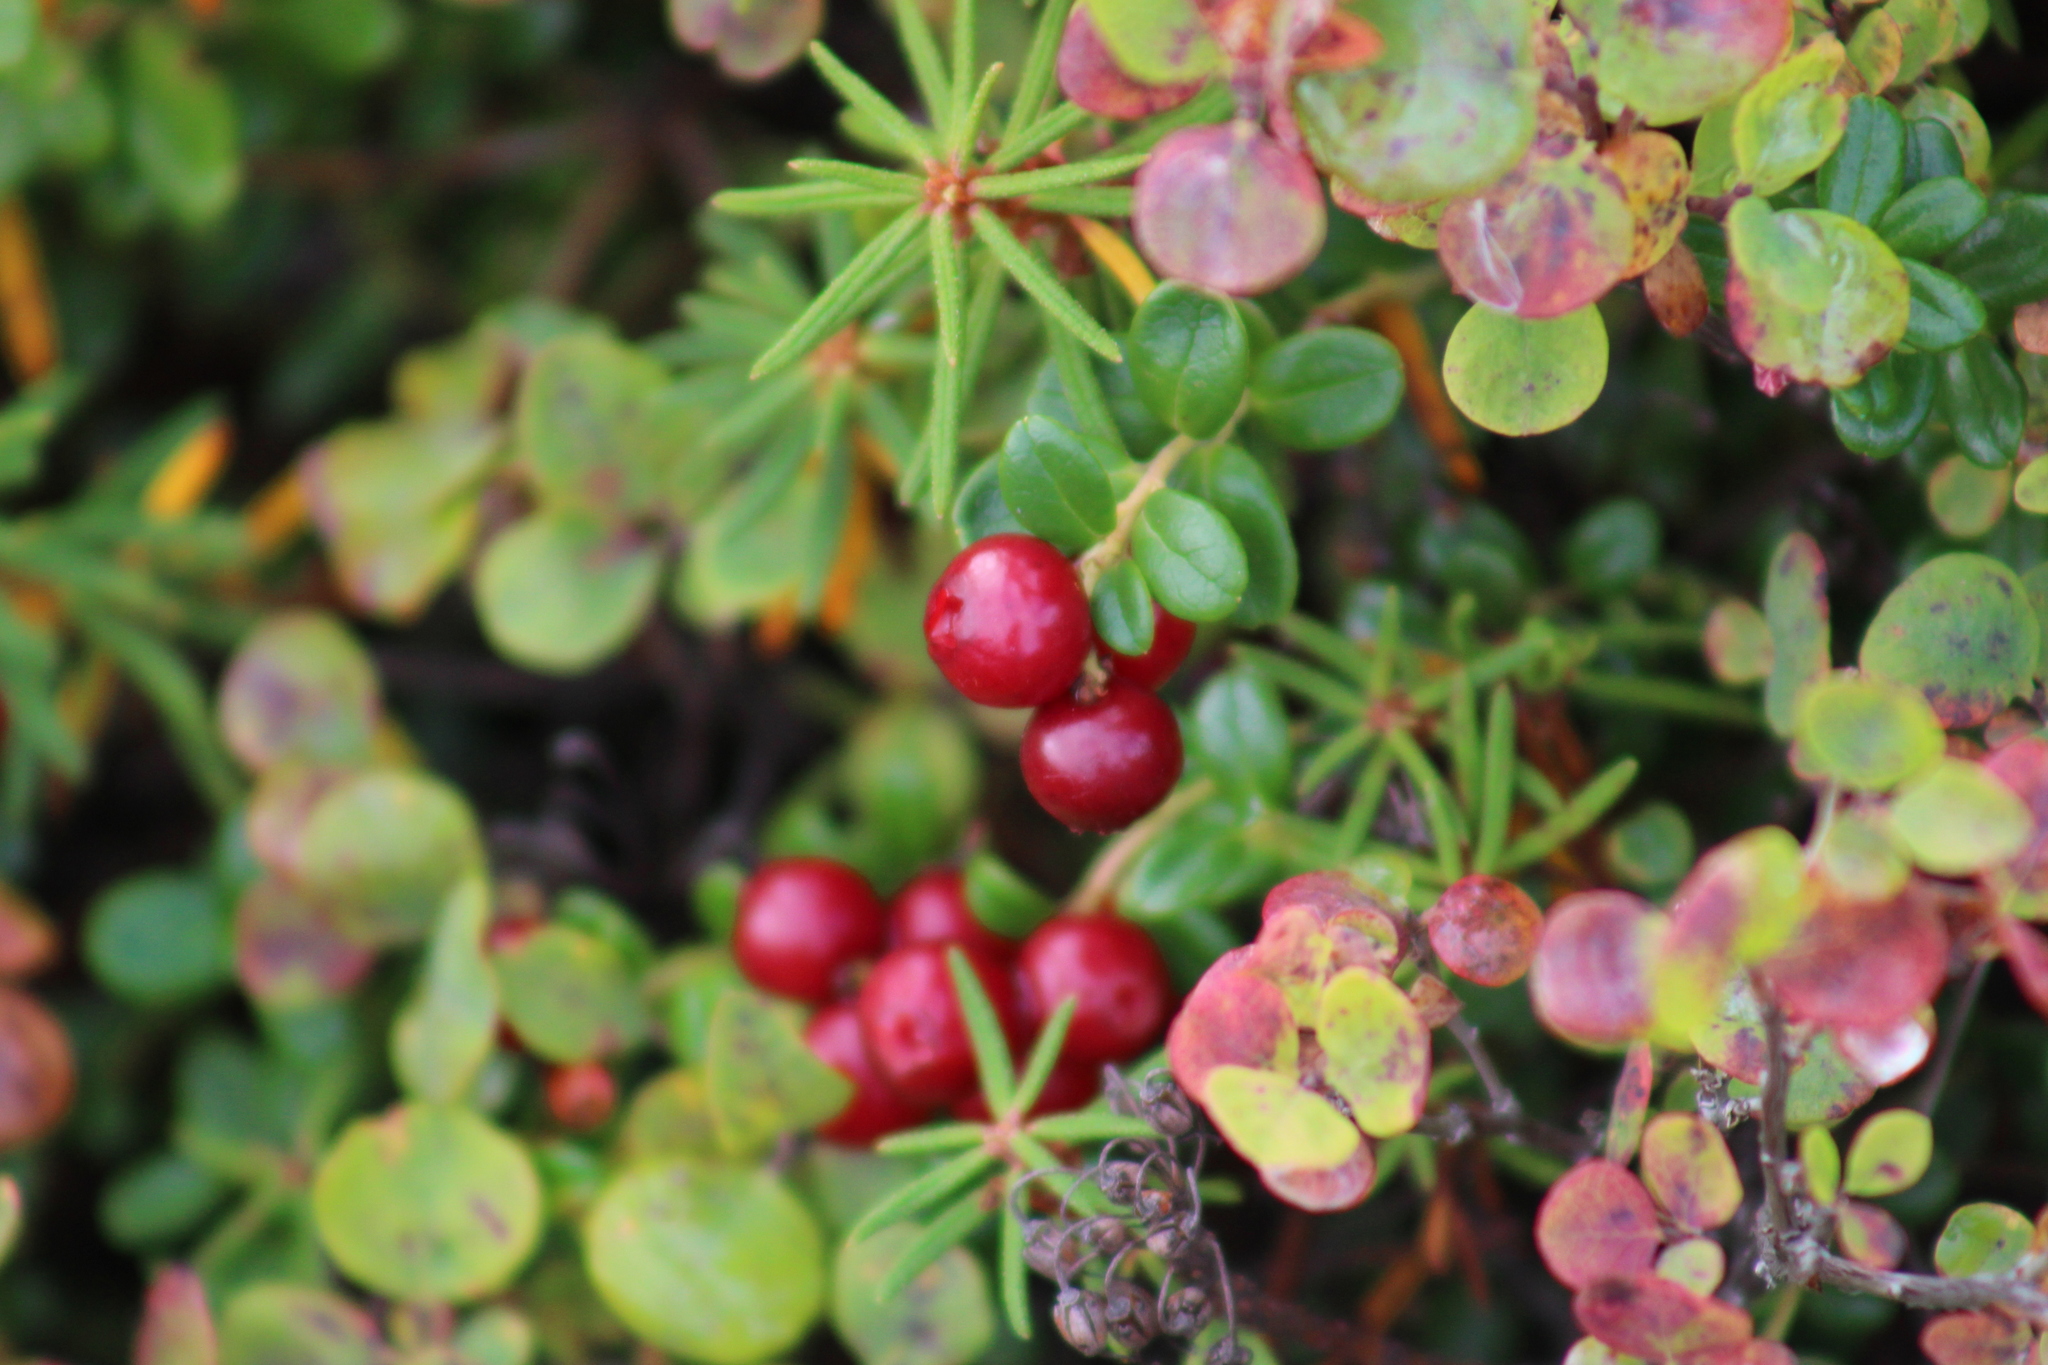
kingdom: Plantae
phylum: Tracheophyta
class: Magnoliopsida
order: Ericales
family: Ericaceae
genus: Vaccinium
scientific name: Vaccinium vitis-idaea
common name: Cowberry
